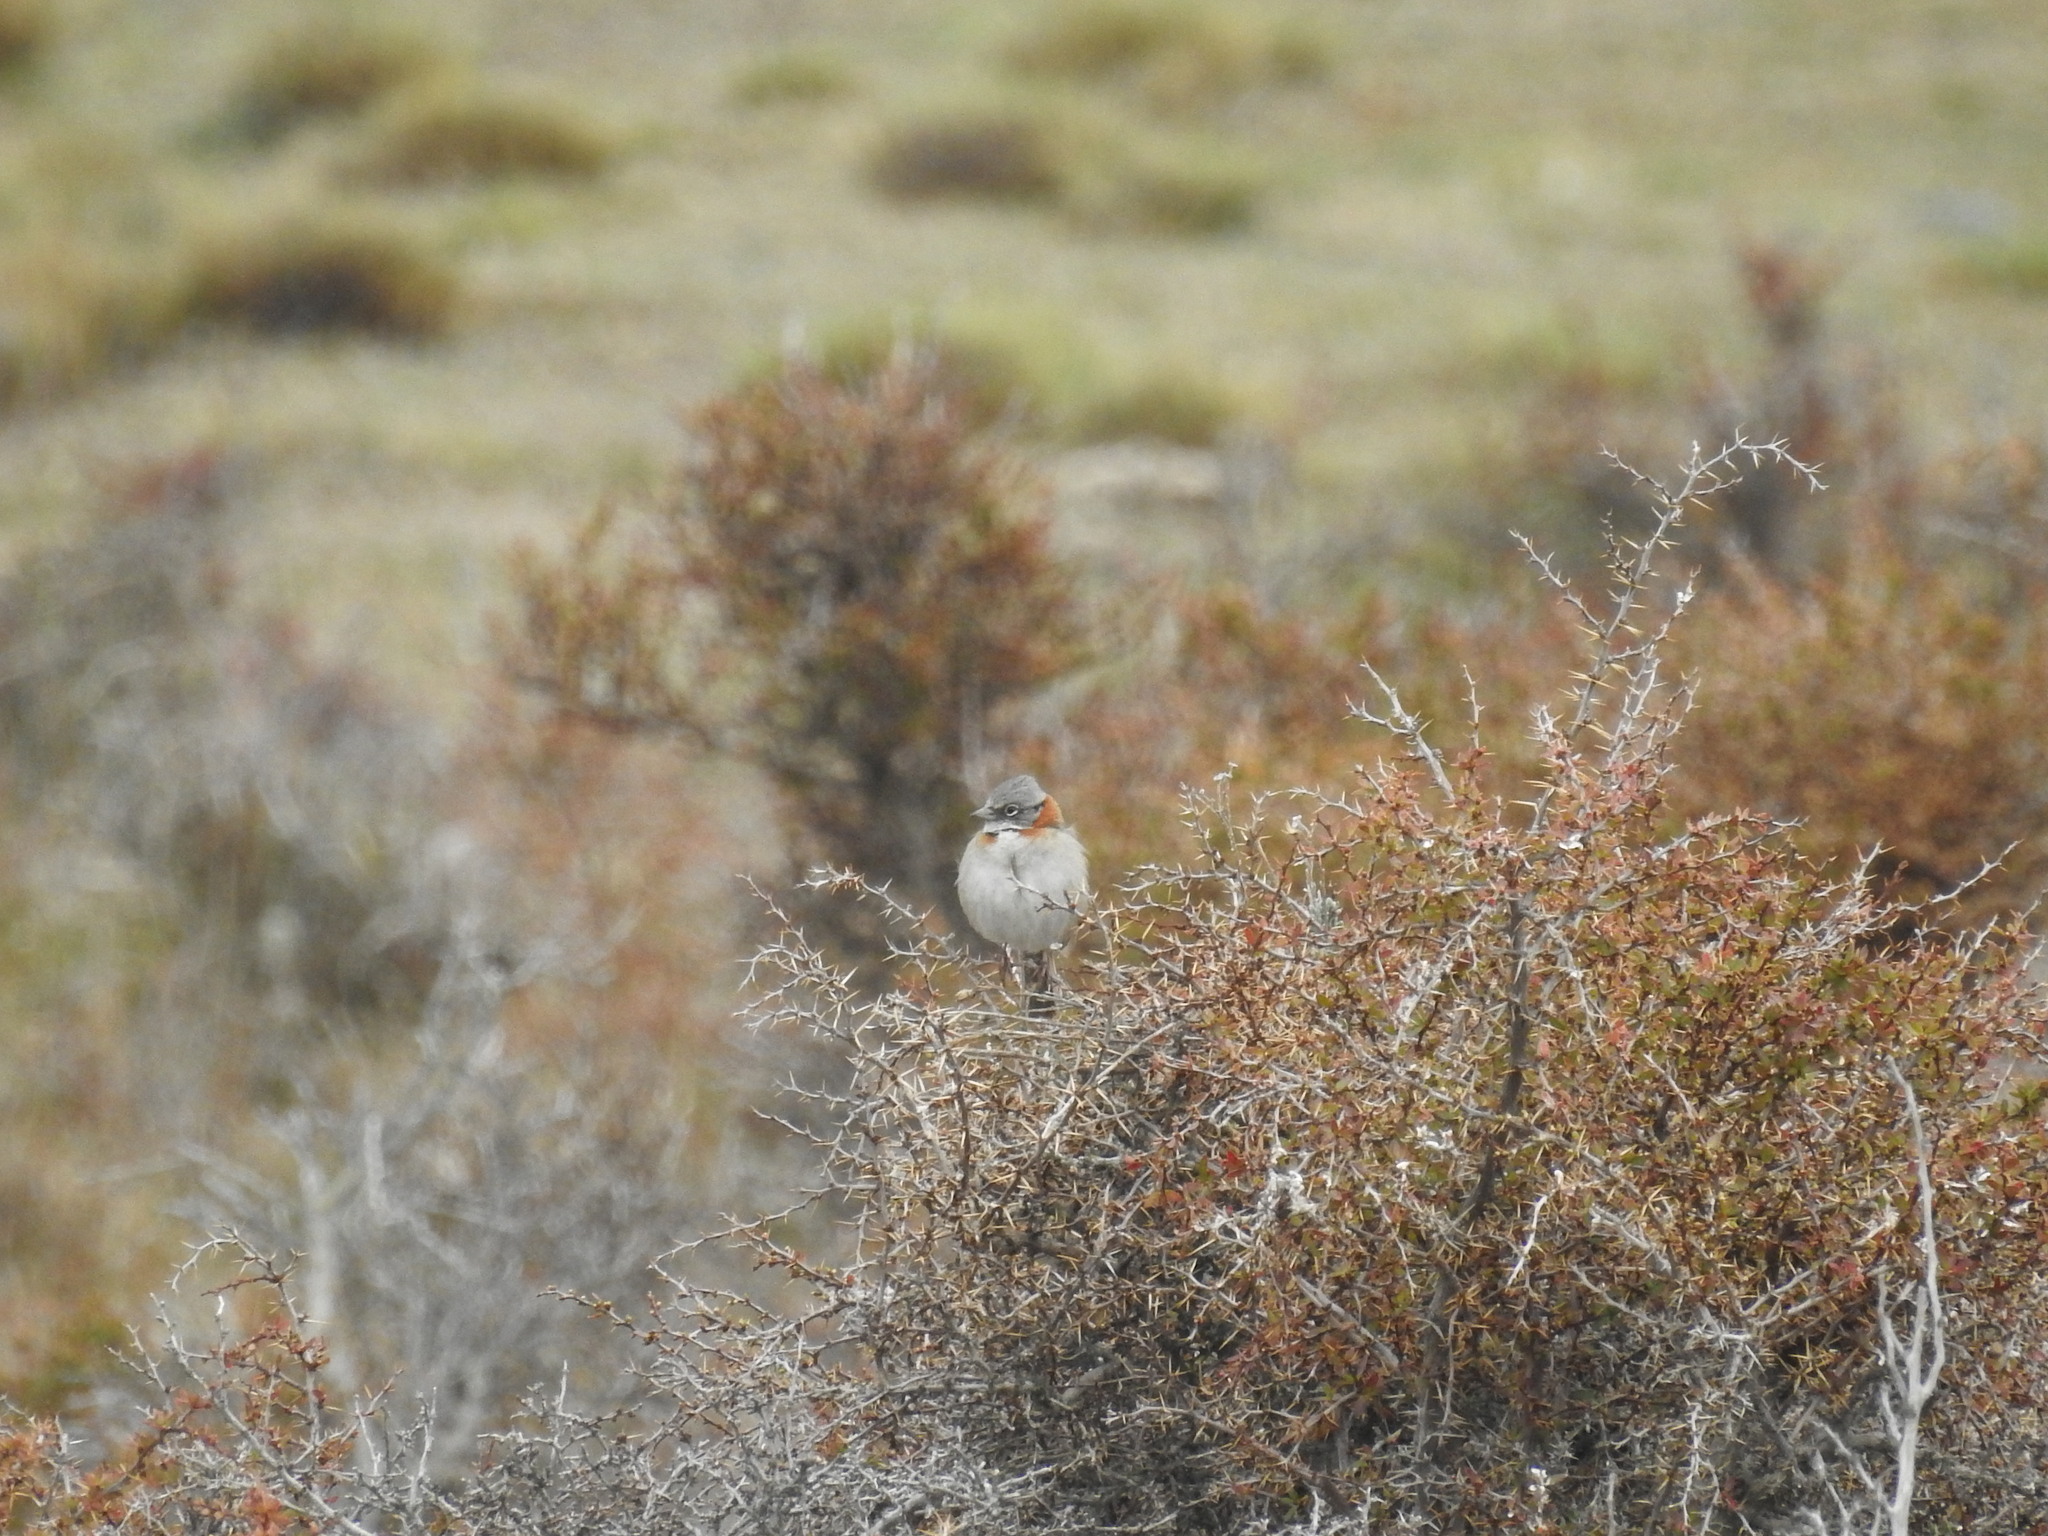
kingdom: Animalia
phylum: Chordata
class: Aves
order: Passeriformes
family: Passerellidae
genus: Zonotrichia
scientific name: Zonotrichia capensis
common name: Rufous-collared sparrow
